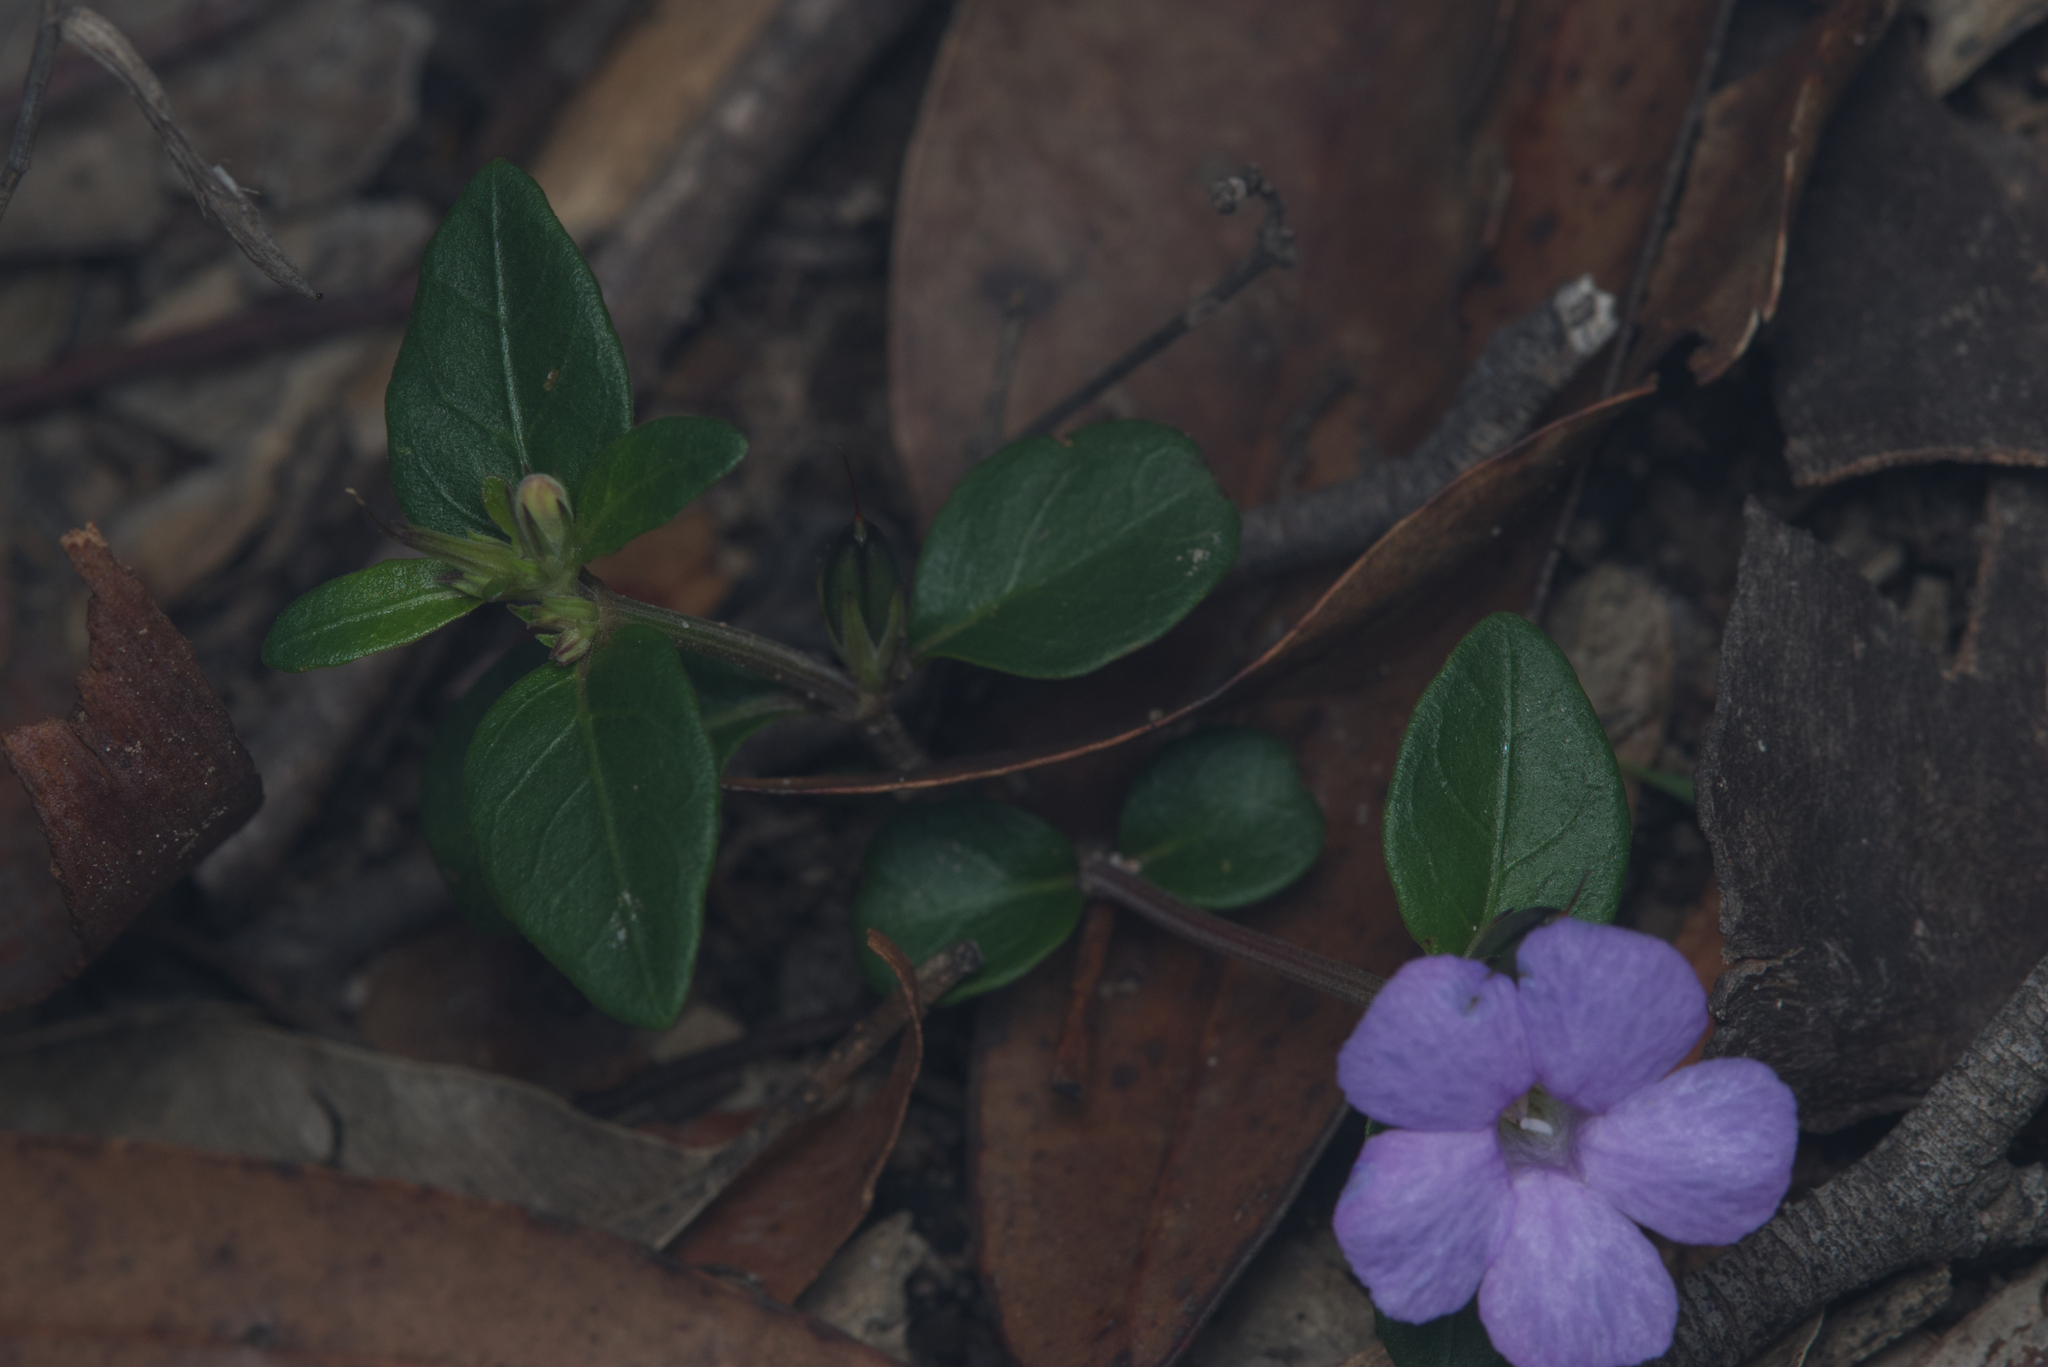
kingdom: Plantae
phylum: Tracheophyta
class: Magnoliopsida
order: Lamiales
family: Acanthaceae
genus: Brunoniella
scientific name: Brunoniella australis
